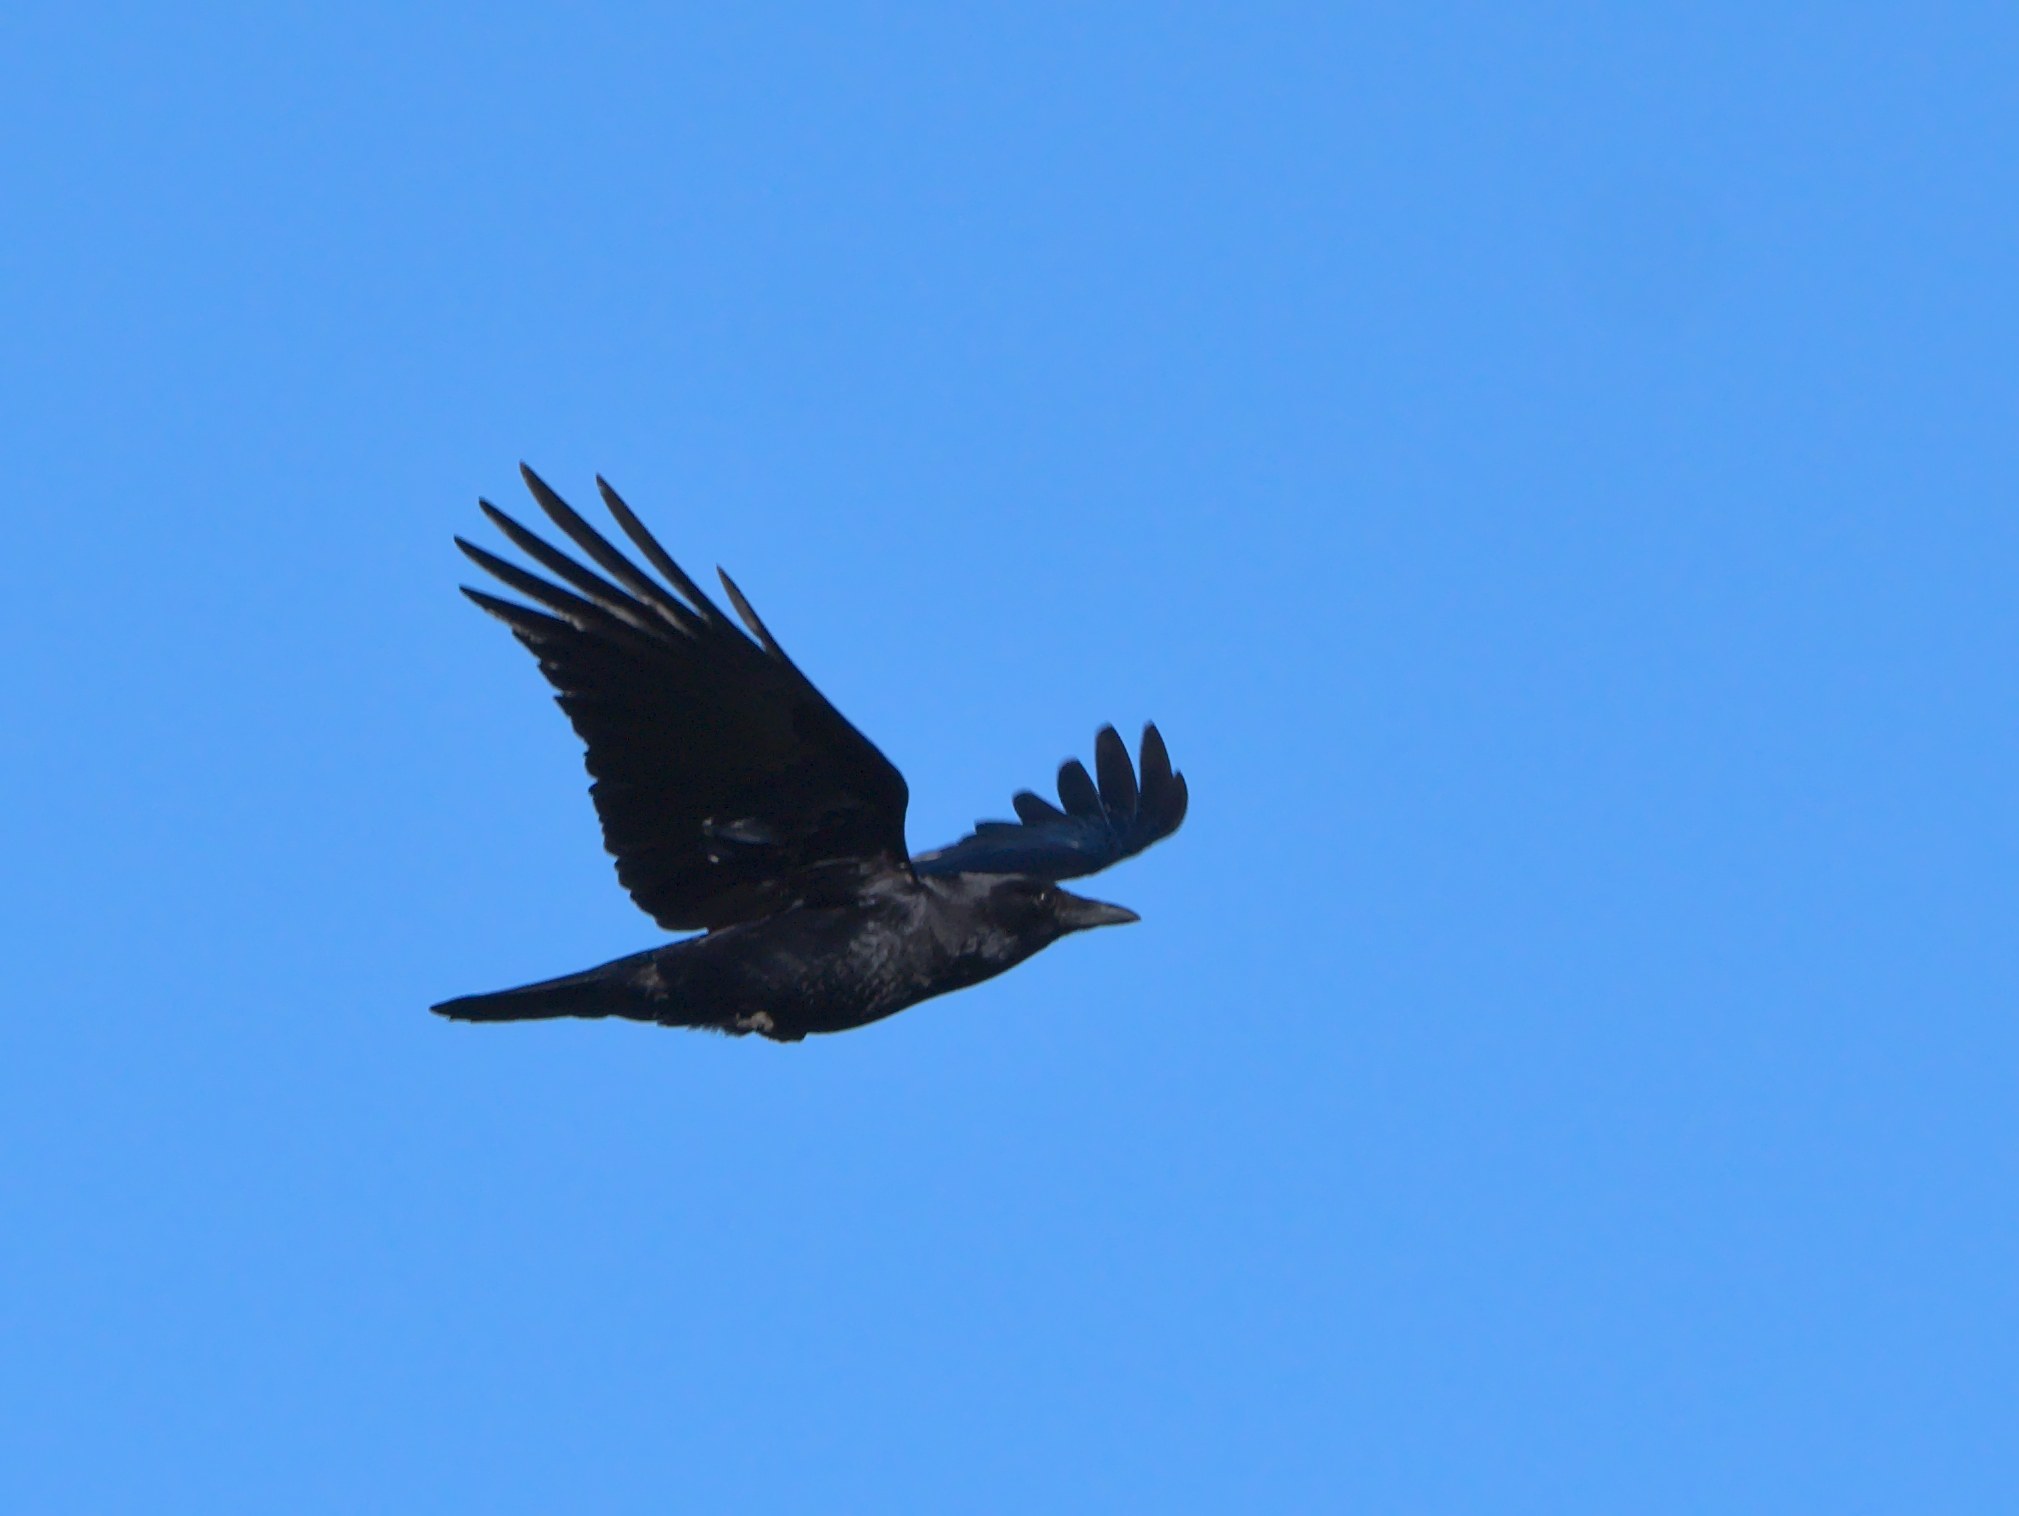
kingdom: Animalia
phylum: Chordata
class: Aves
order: Passeriformes
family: Corvidae
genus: Corvus
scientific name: Corvus brachyrhynchos
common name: American crow
